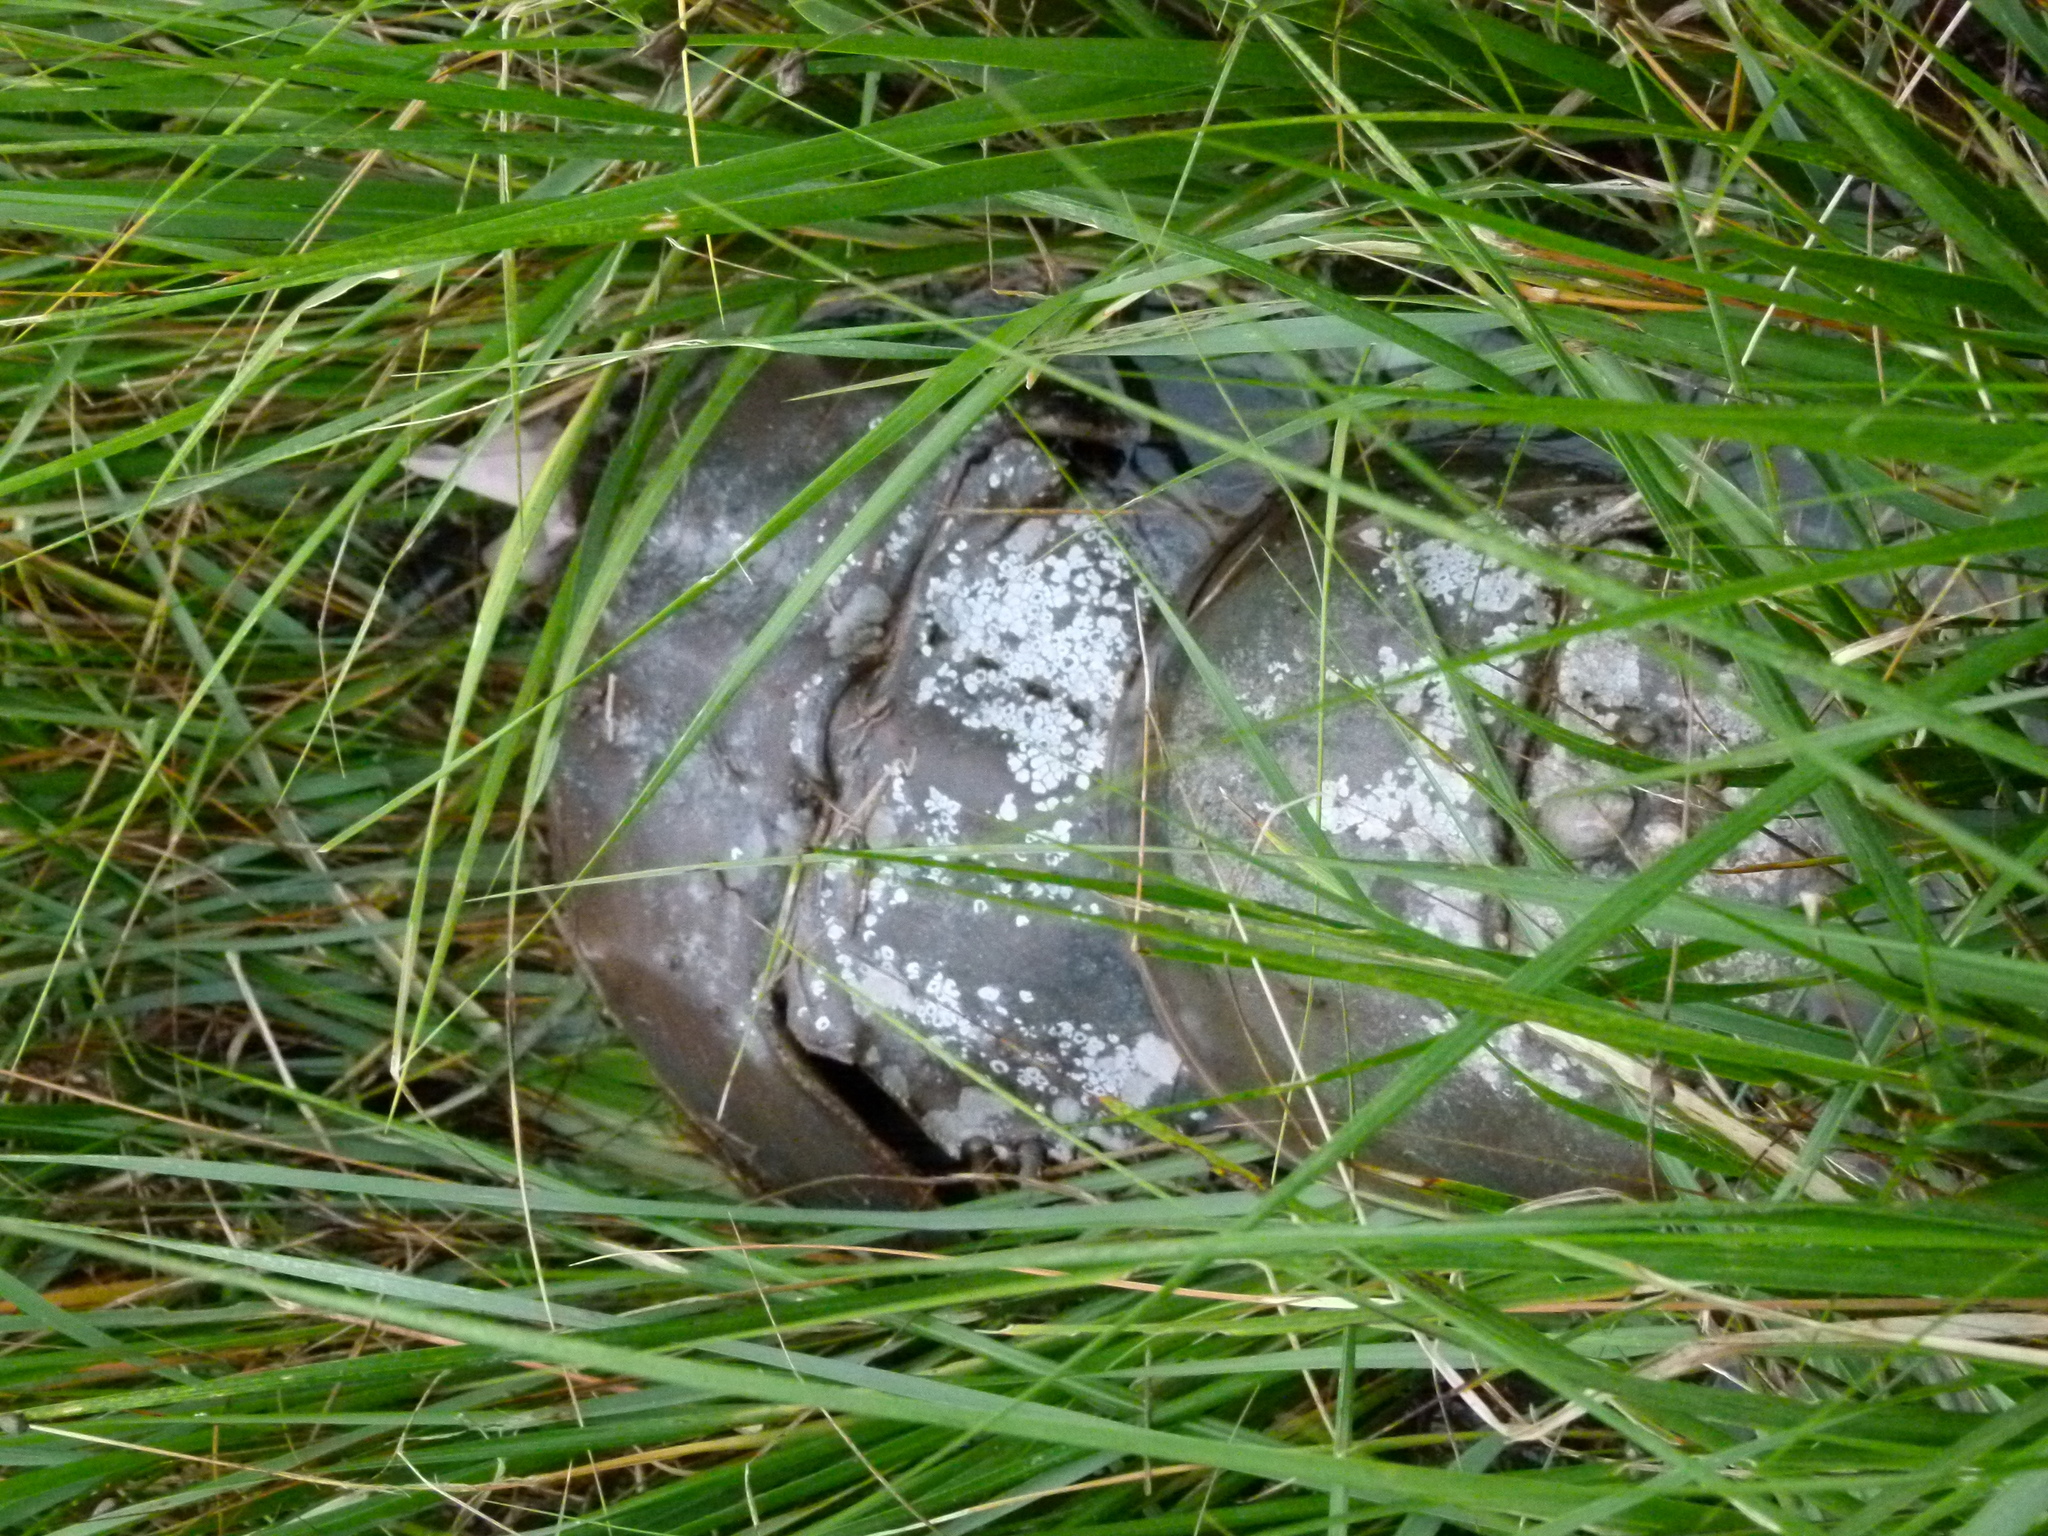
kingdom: Animalia
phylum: Arthropoda
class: Merostomata
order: Xiphosurida
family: Limulidae
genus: Limulus
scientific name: Limulus polyphemus
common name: Horseshoe crab
